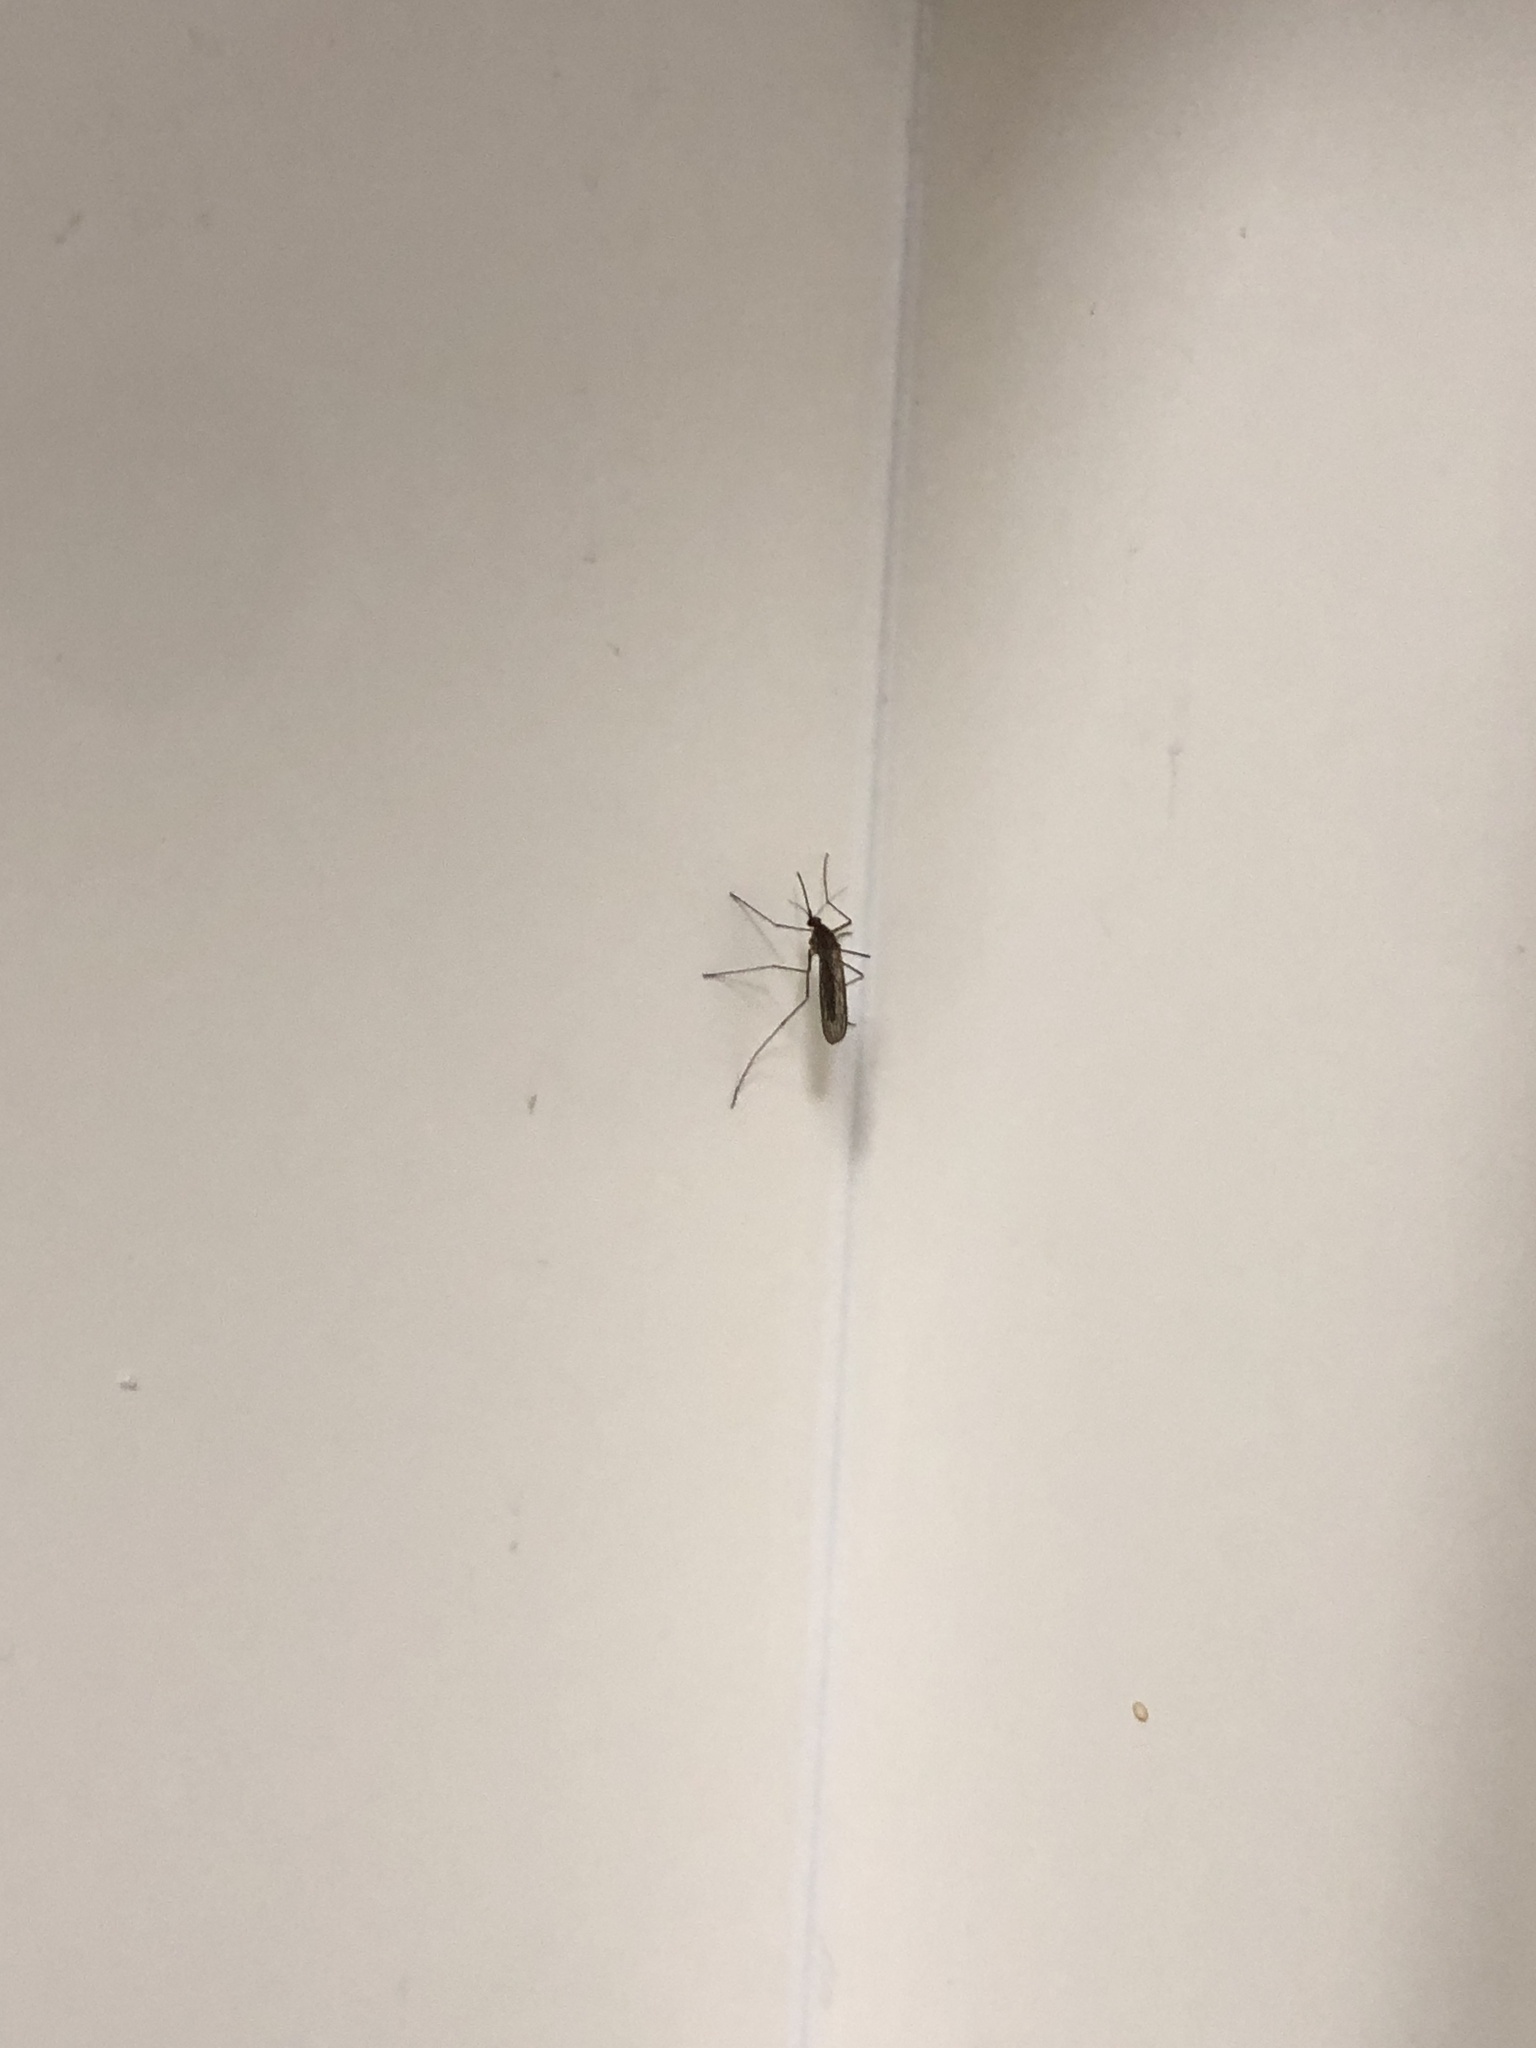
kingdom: Animalia
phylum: Arthropoda
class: Insecta
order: Diptera
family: Culicidae
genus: Culiseta
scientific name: Culiseta inornata
